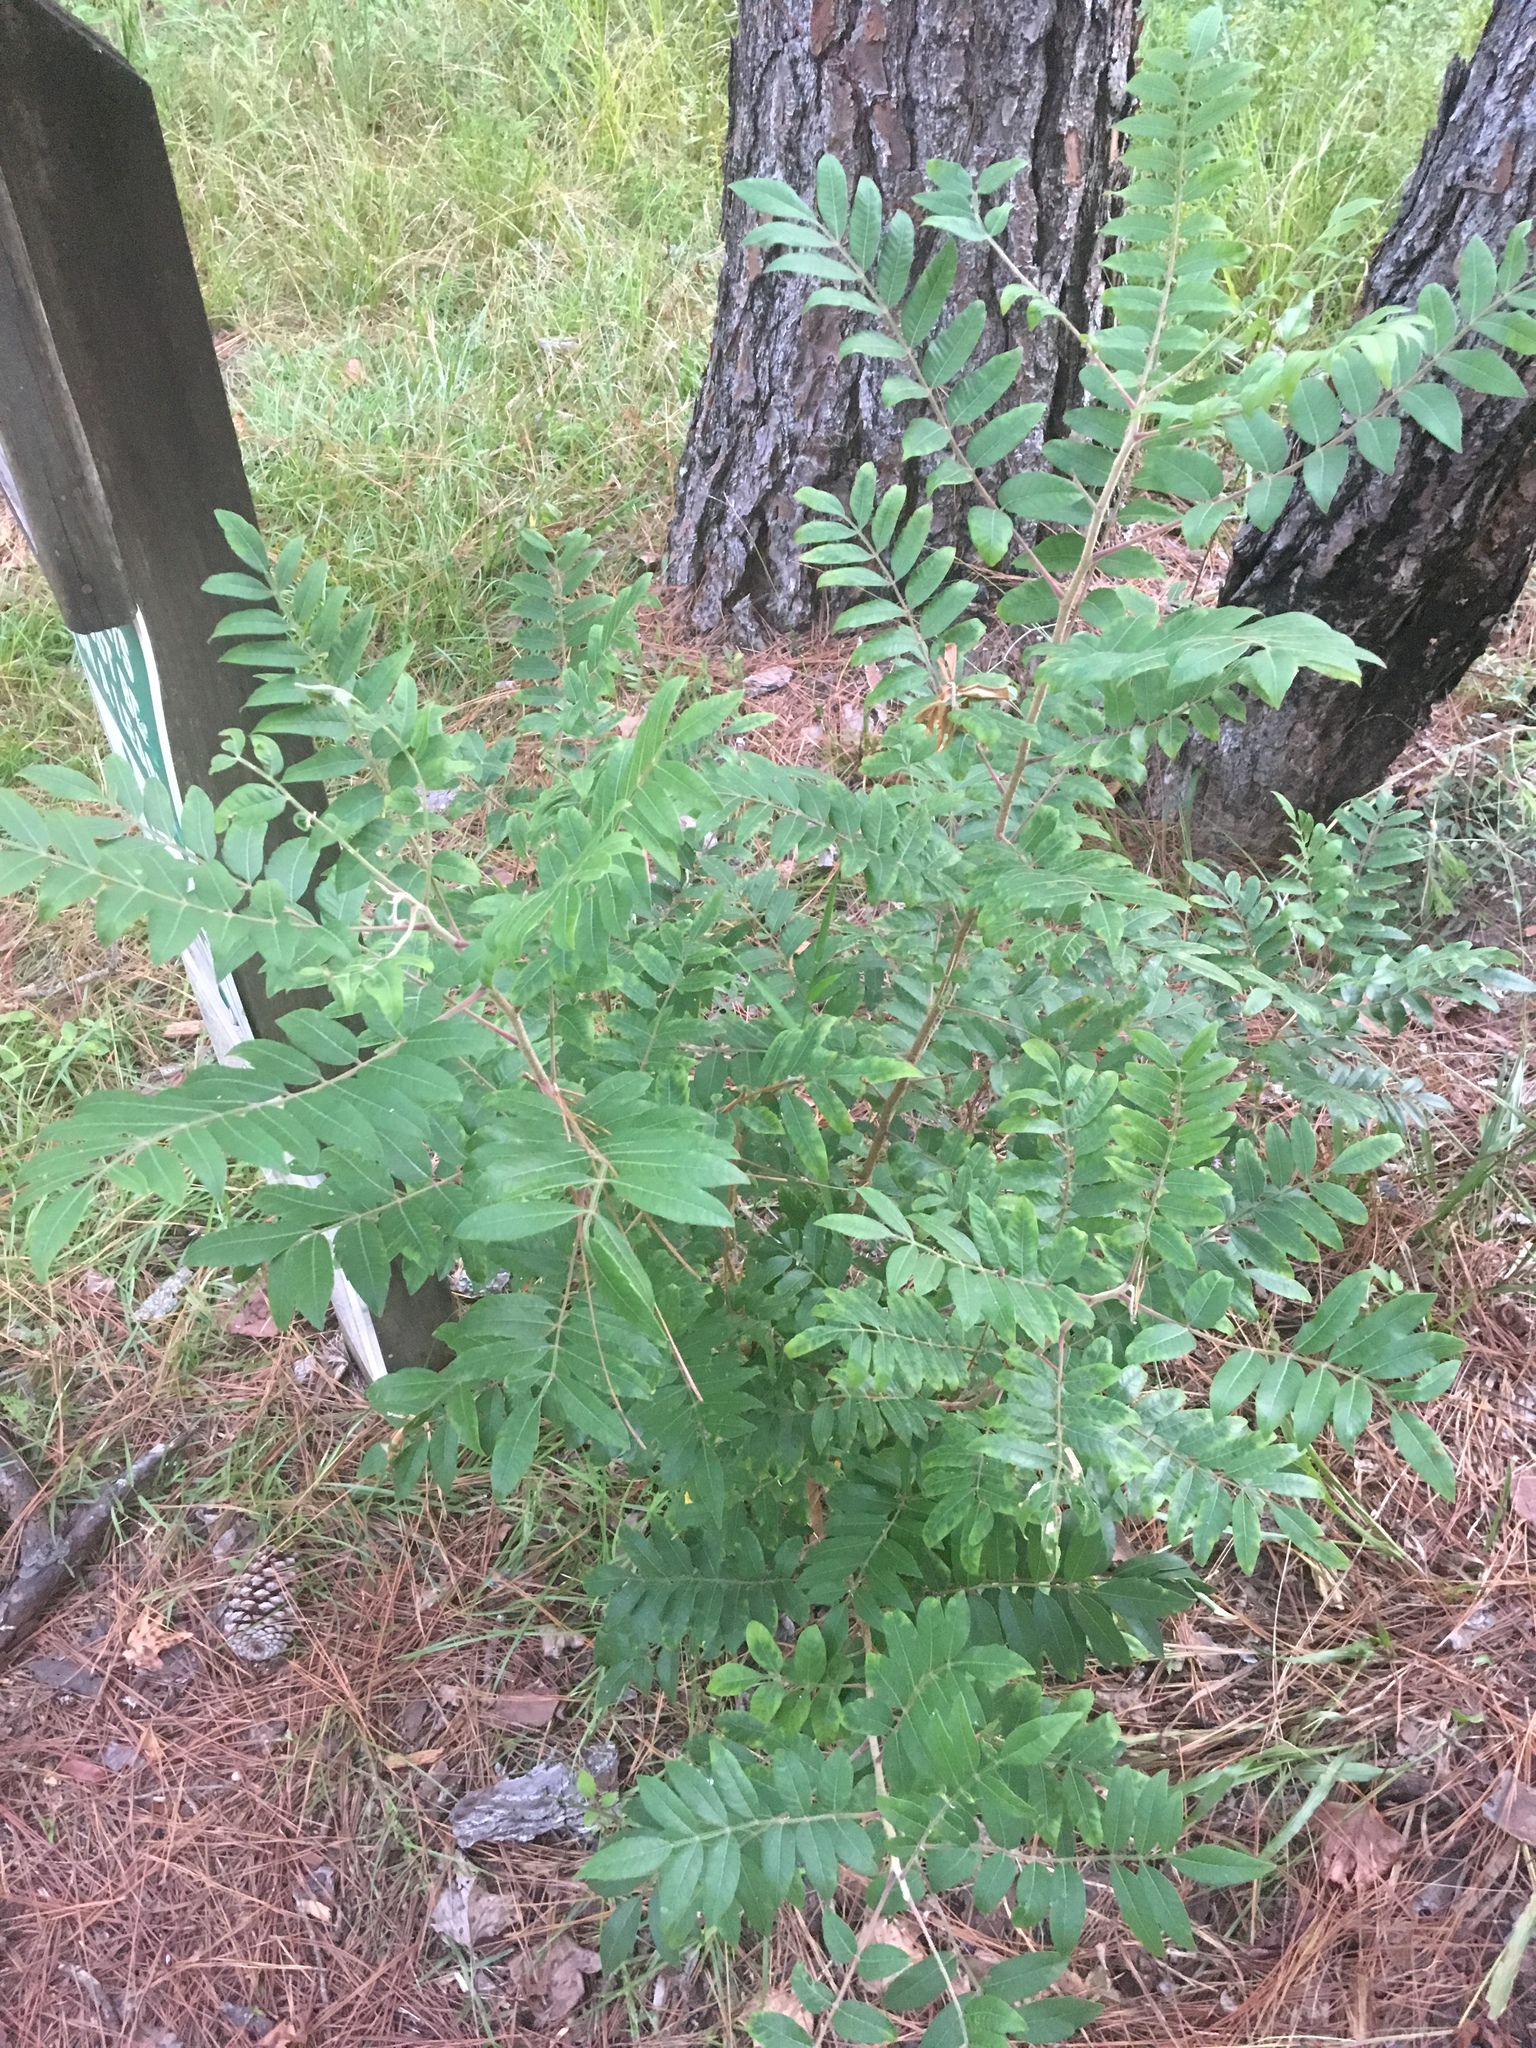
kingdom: Plantae
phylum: Tracheophyta
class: Magnoliopsida
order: Sapindales
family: Anacardiaceae
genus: Rhus
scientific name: Rhus copallina
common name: Shining sumac
